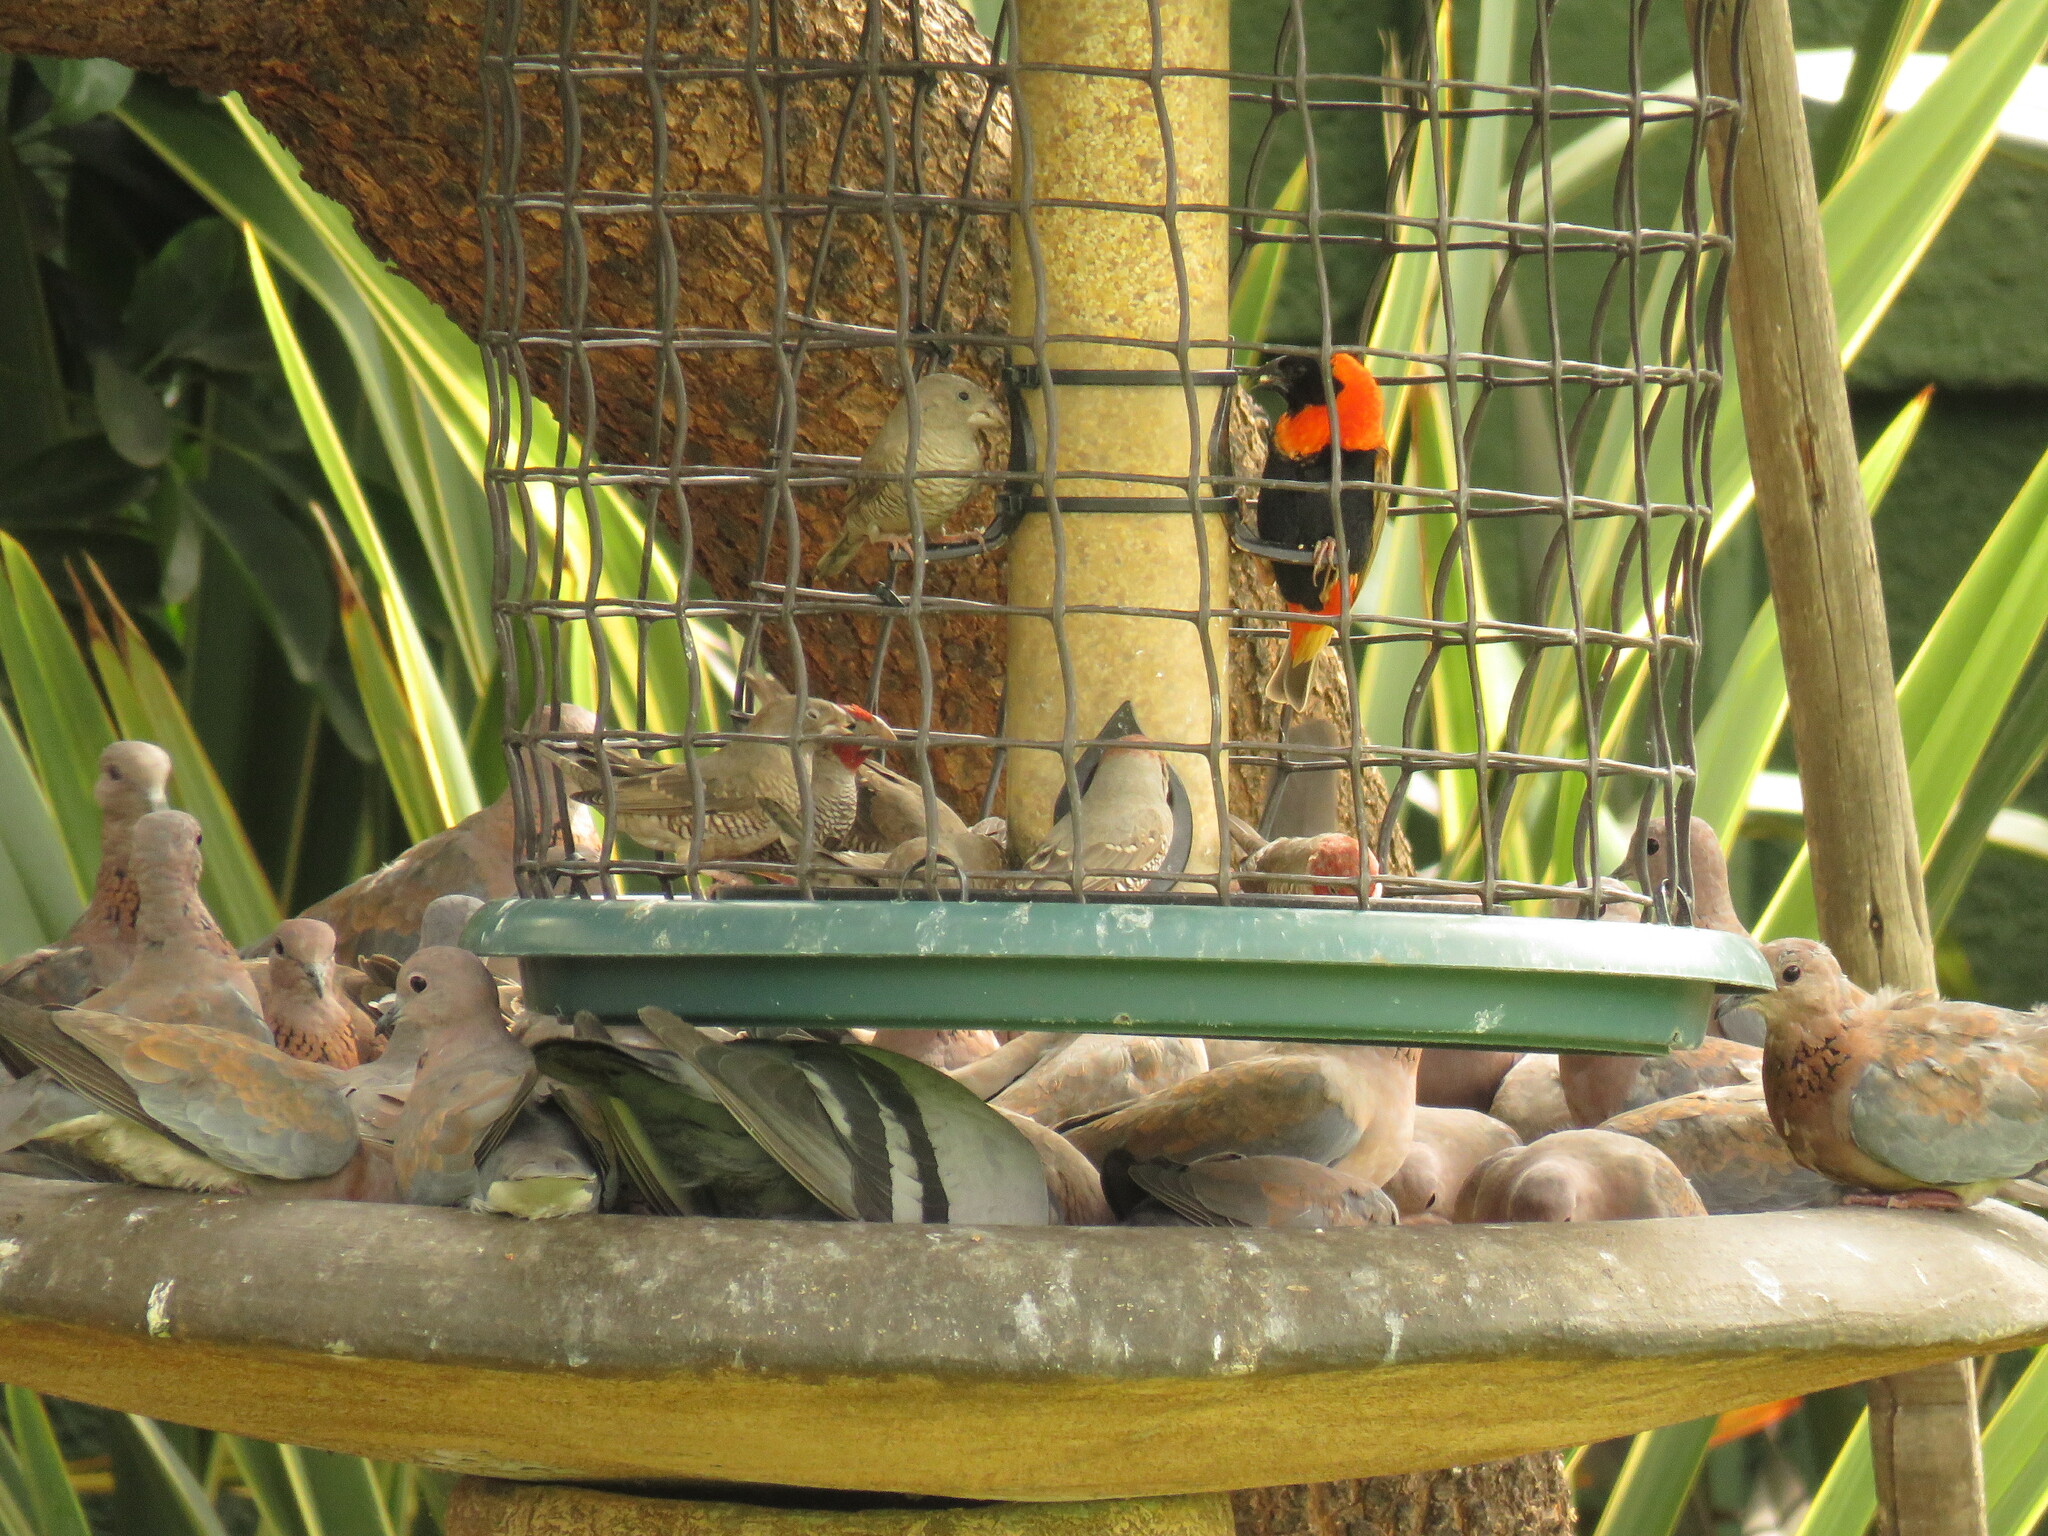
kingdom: Animalia
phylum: Chordata
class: Aves
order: Passeriformes
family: Estrildidae
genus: Amadina
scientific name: Amadina erythrocephala
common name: Red-headed finch
